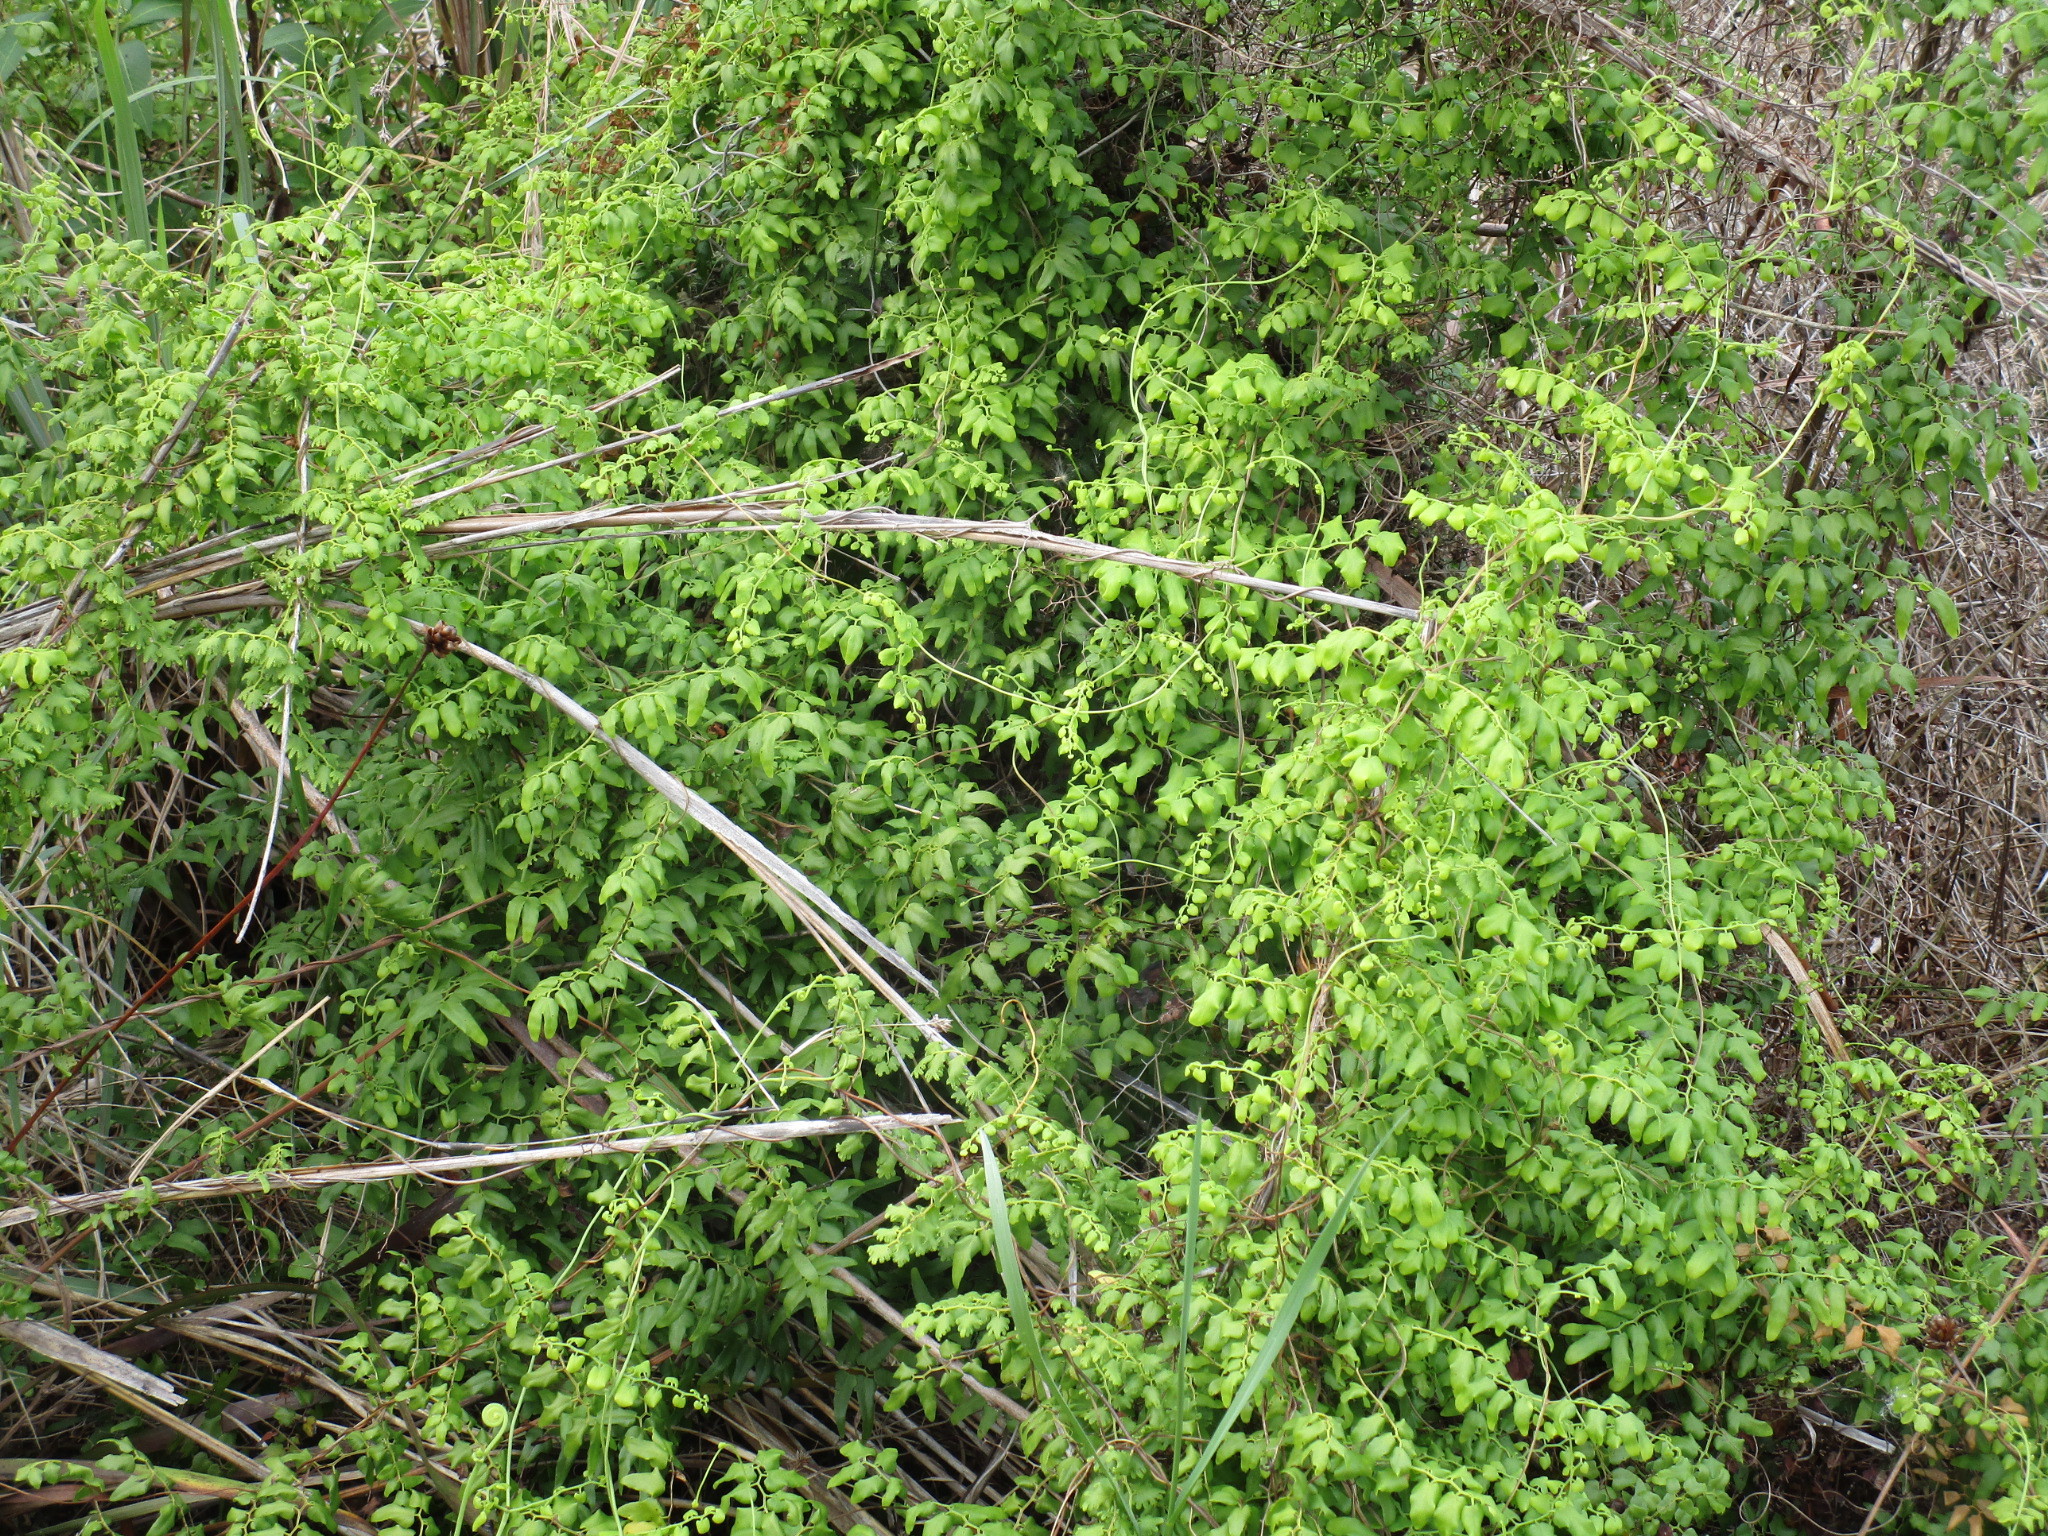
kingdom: Plantae
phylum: Tracheophyta
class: Polypodiopsida
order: Schizaeales
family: Lygodiaceae
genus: Lygodium
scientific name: Lygodium microphyllum
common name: Small-leaf climbing fern
